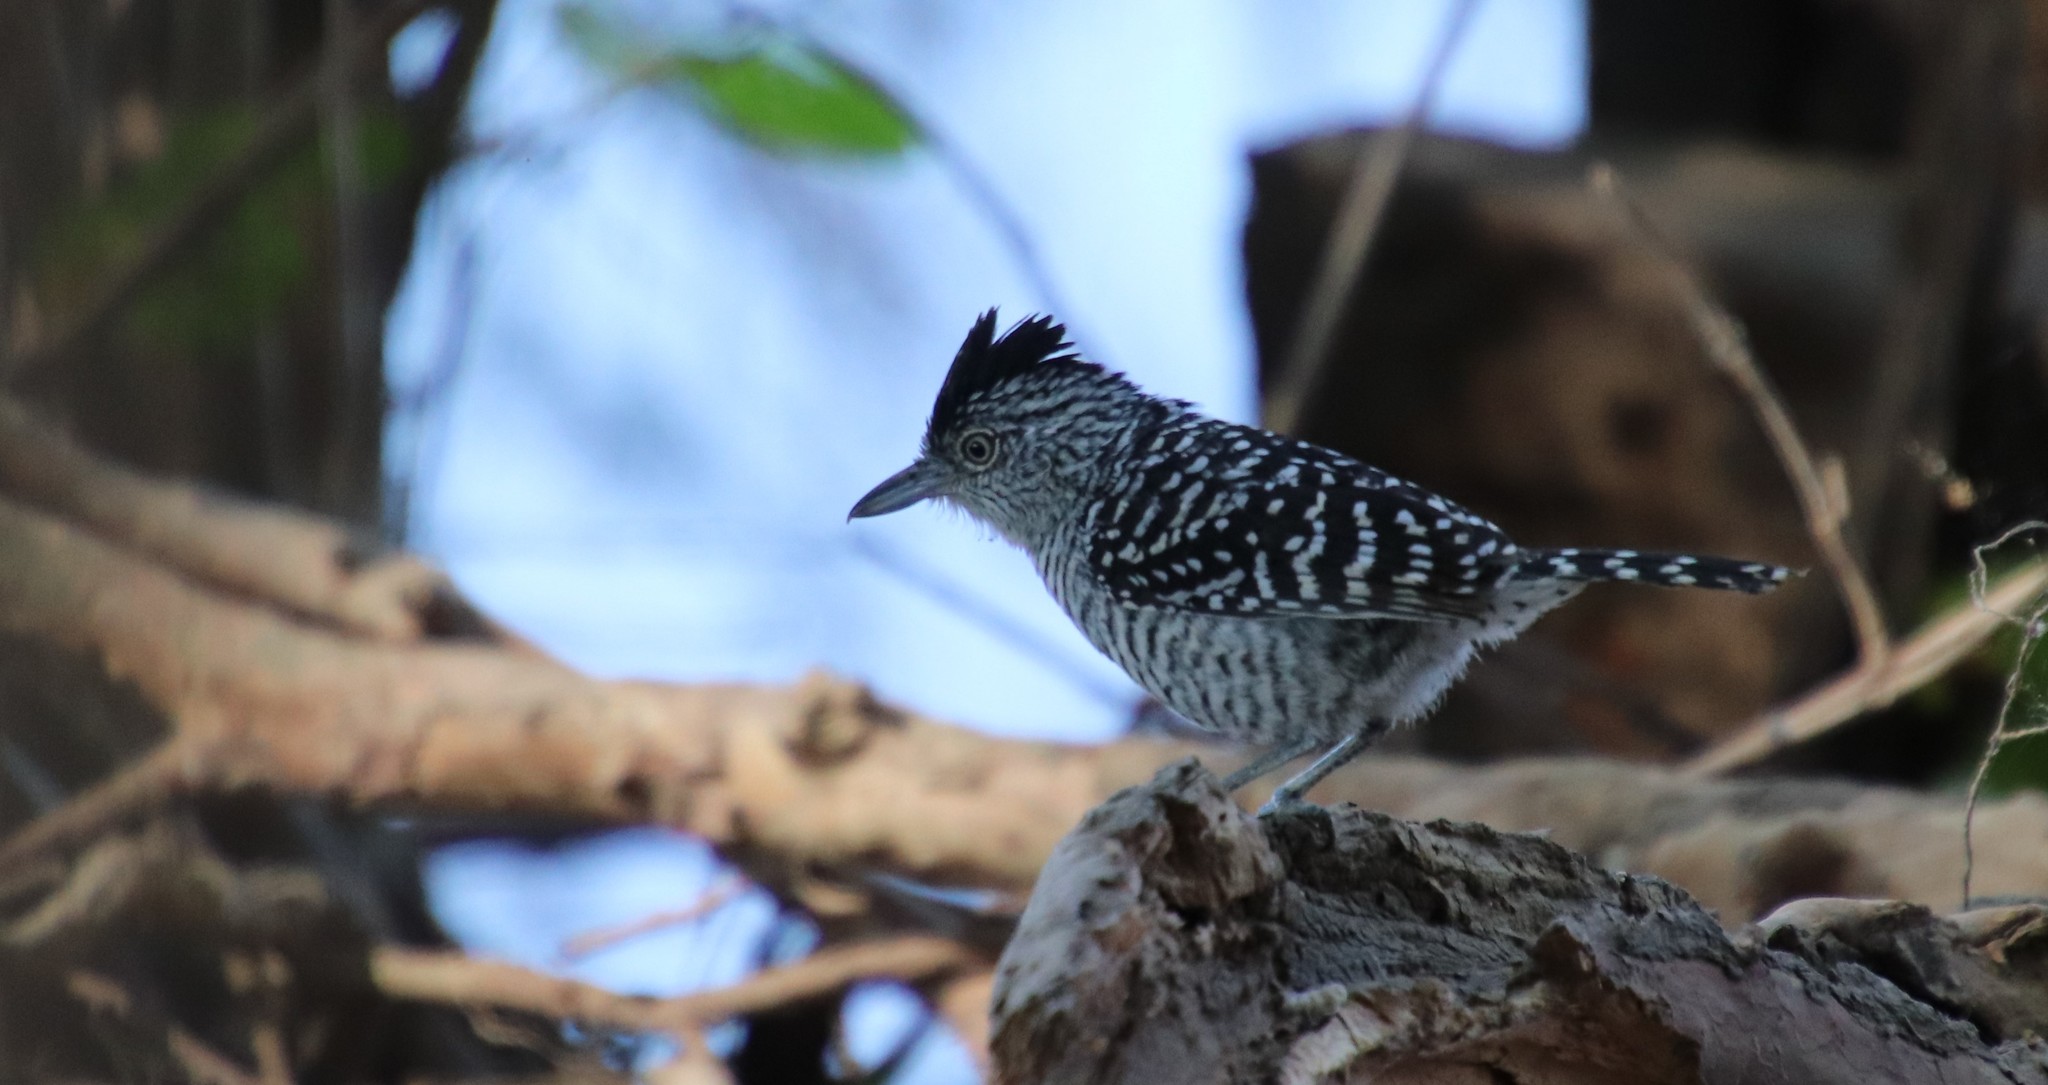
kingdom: Animalia
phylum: Chordata
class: Aves
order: Passeriformes
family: Thamnophilidae
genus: Thamnophilus
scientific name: Thamnophilus doliatus
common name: Barred antshrike
